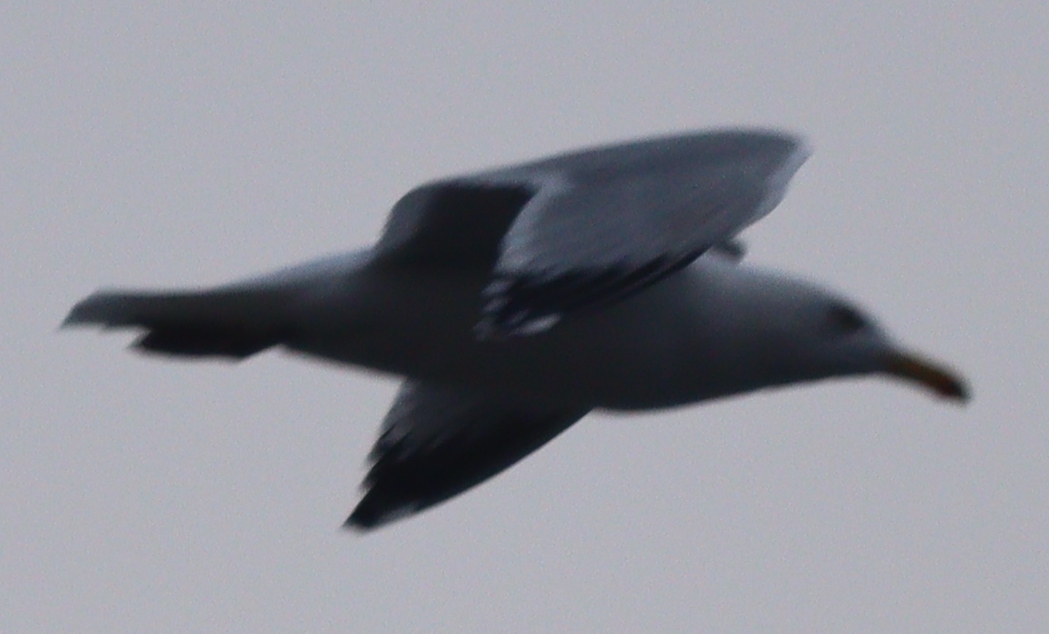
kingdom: Animalia
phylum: Chordata
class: Aves
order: Charadriiformes
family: Laridae
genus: Larus
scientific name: Larus argentatus
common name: Herring gull
